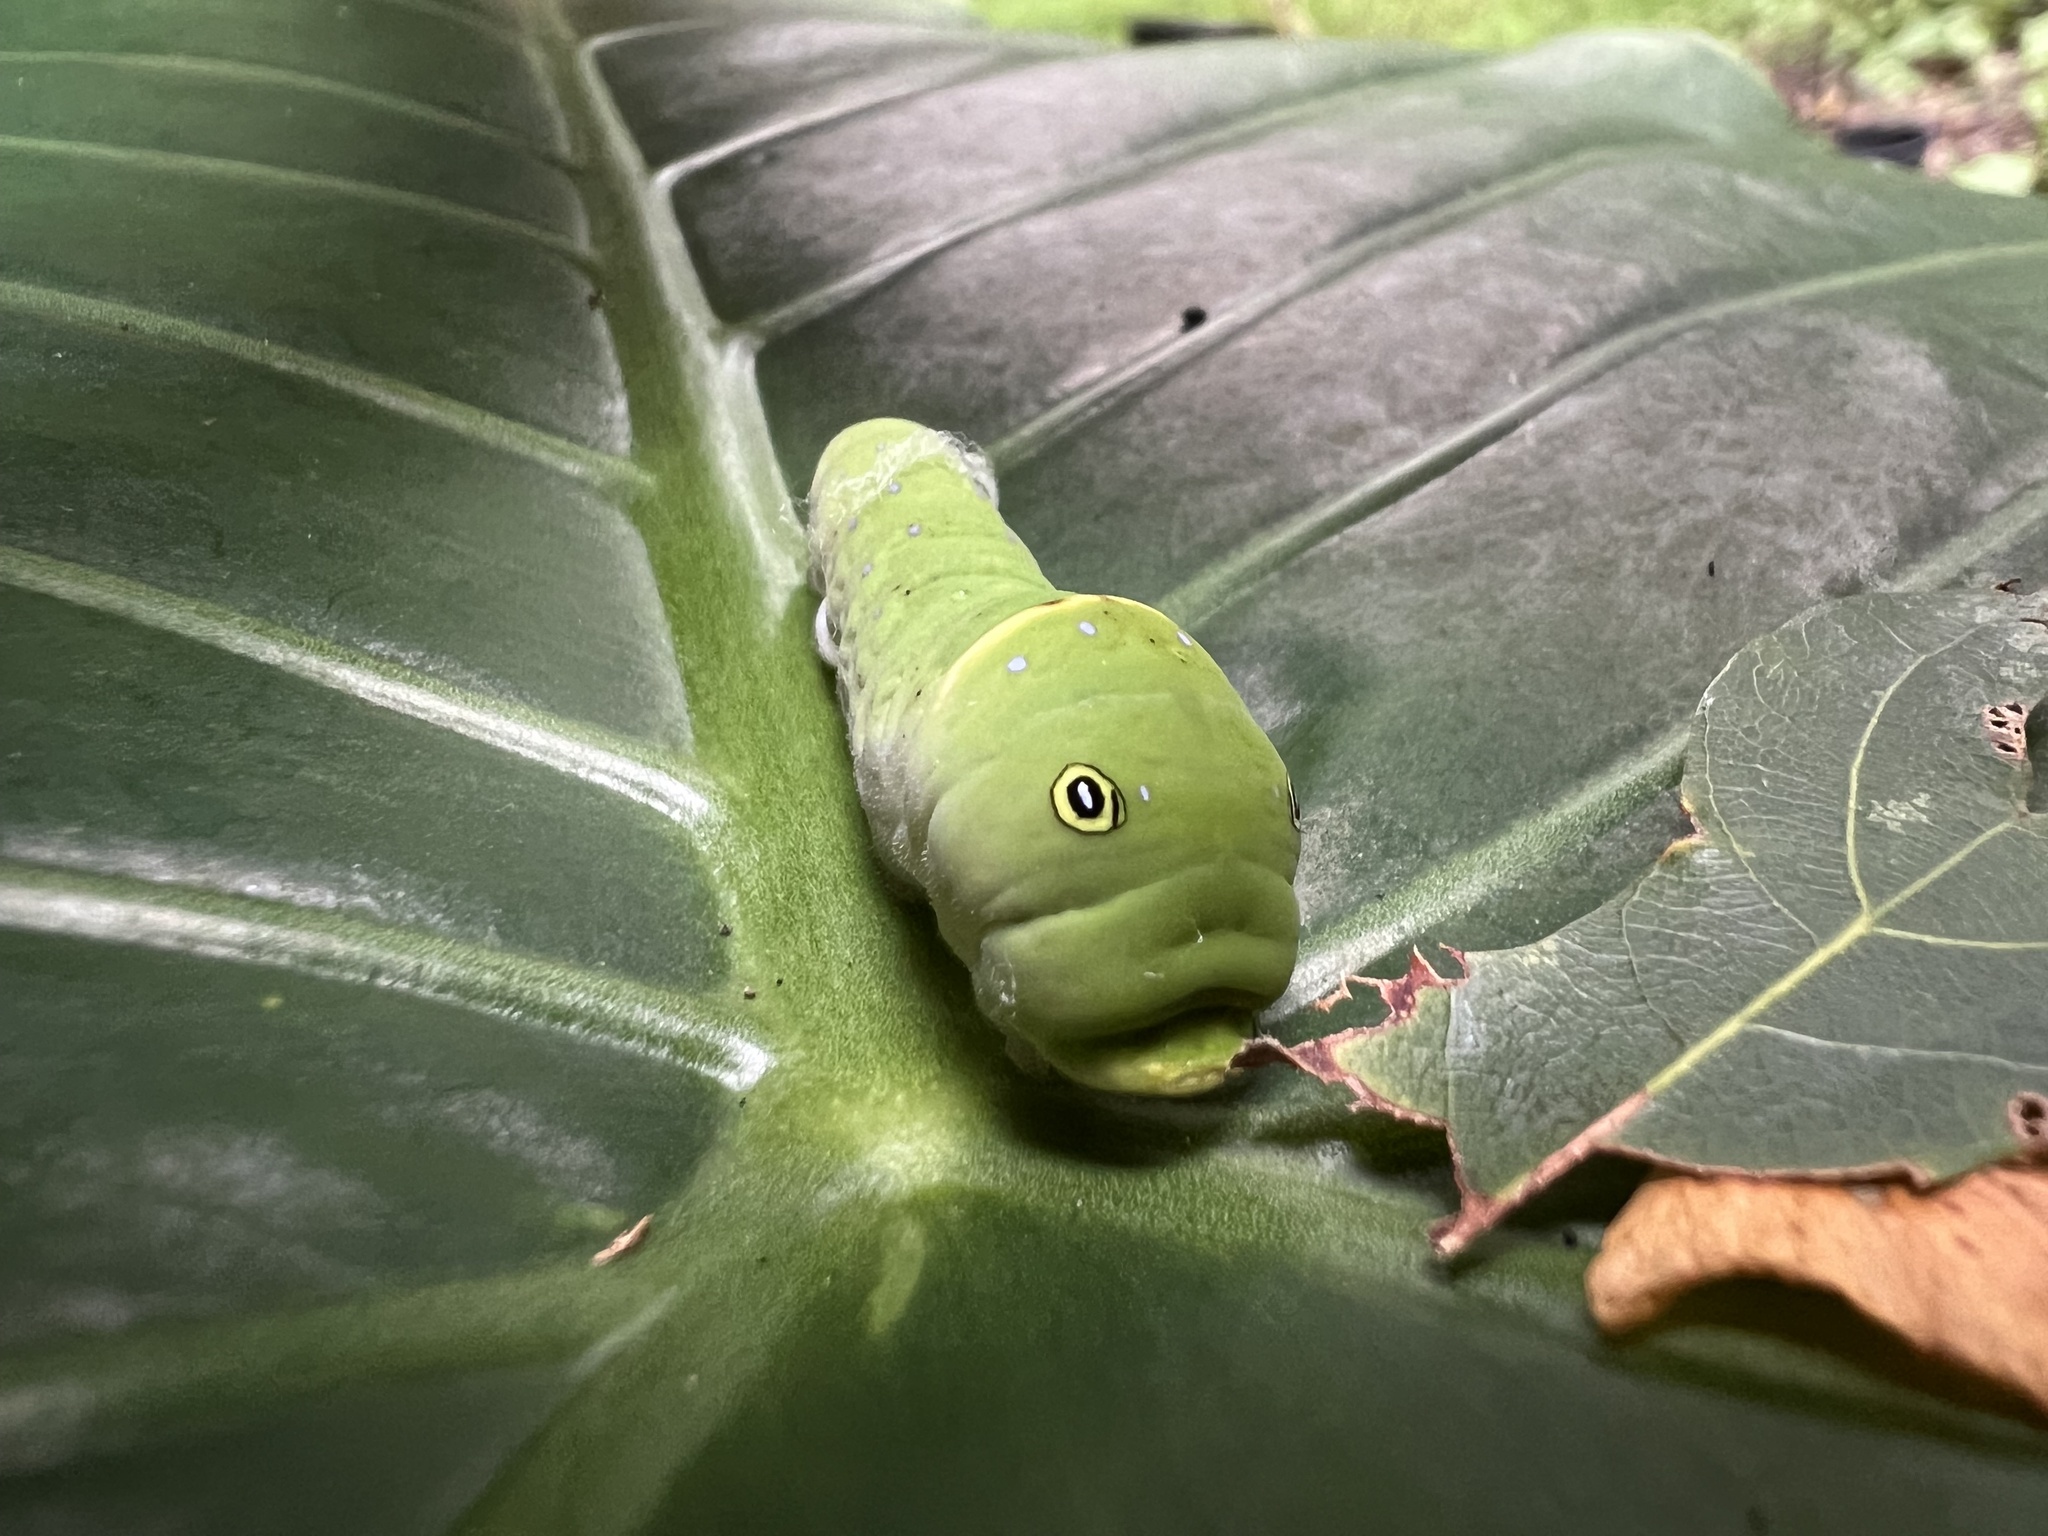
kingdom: Animalia
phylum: Arthropoda
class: Insecta
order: Lepidoptera
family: Papilionidae
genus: Papilio
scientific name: Papilio glaucus
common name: Tiger swallowtail
